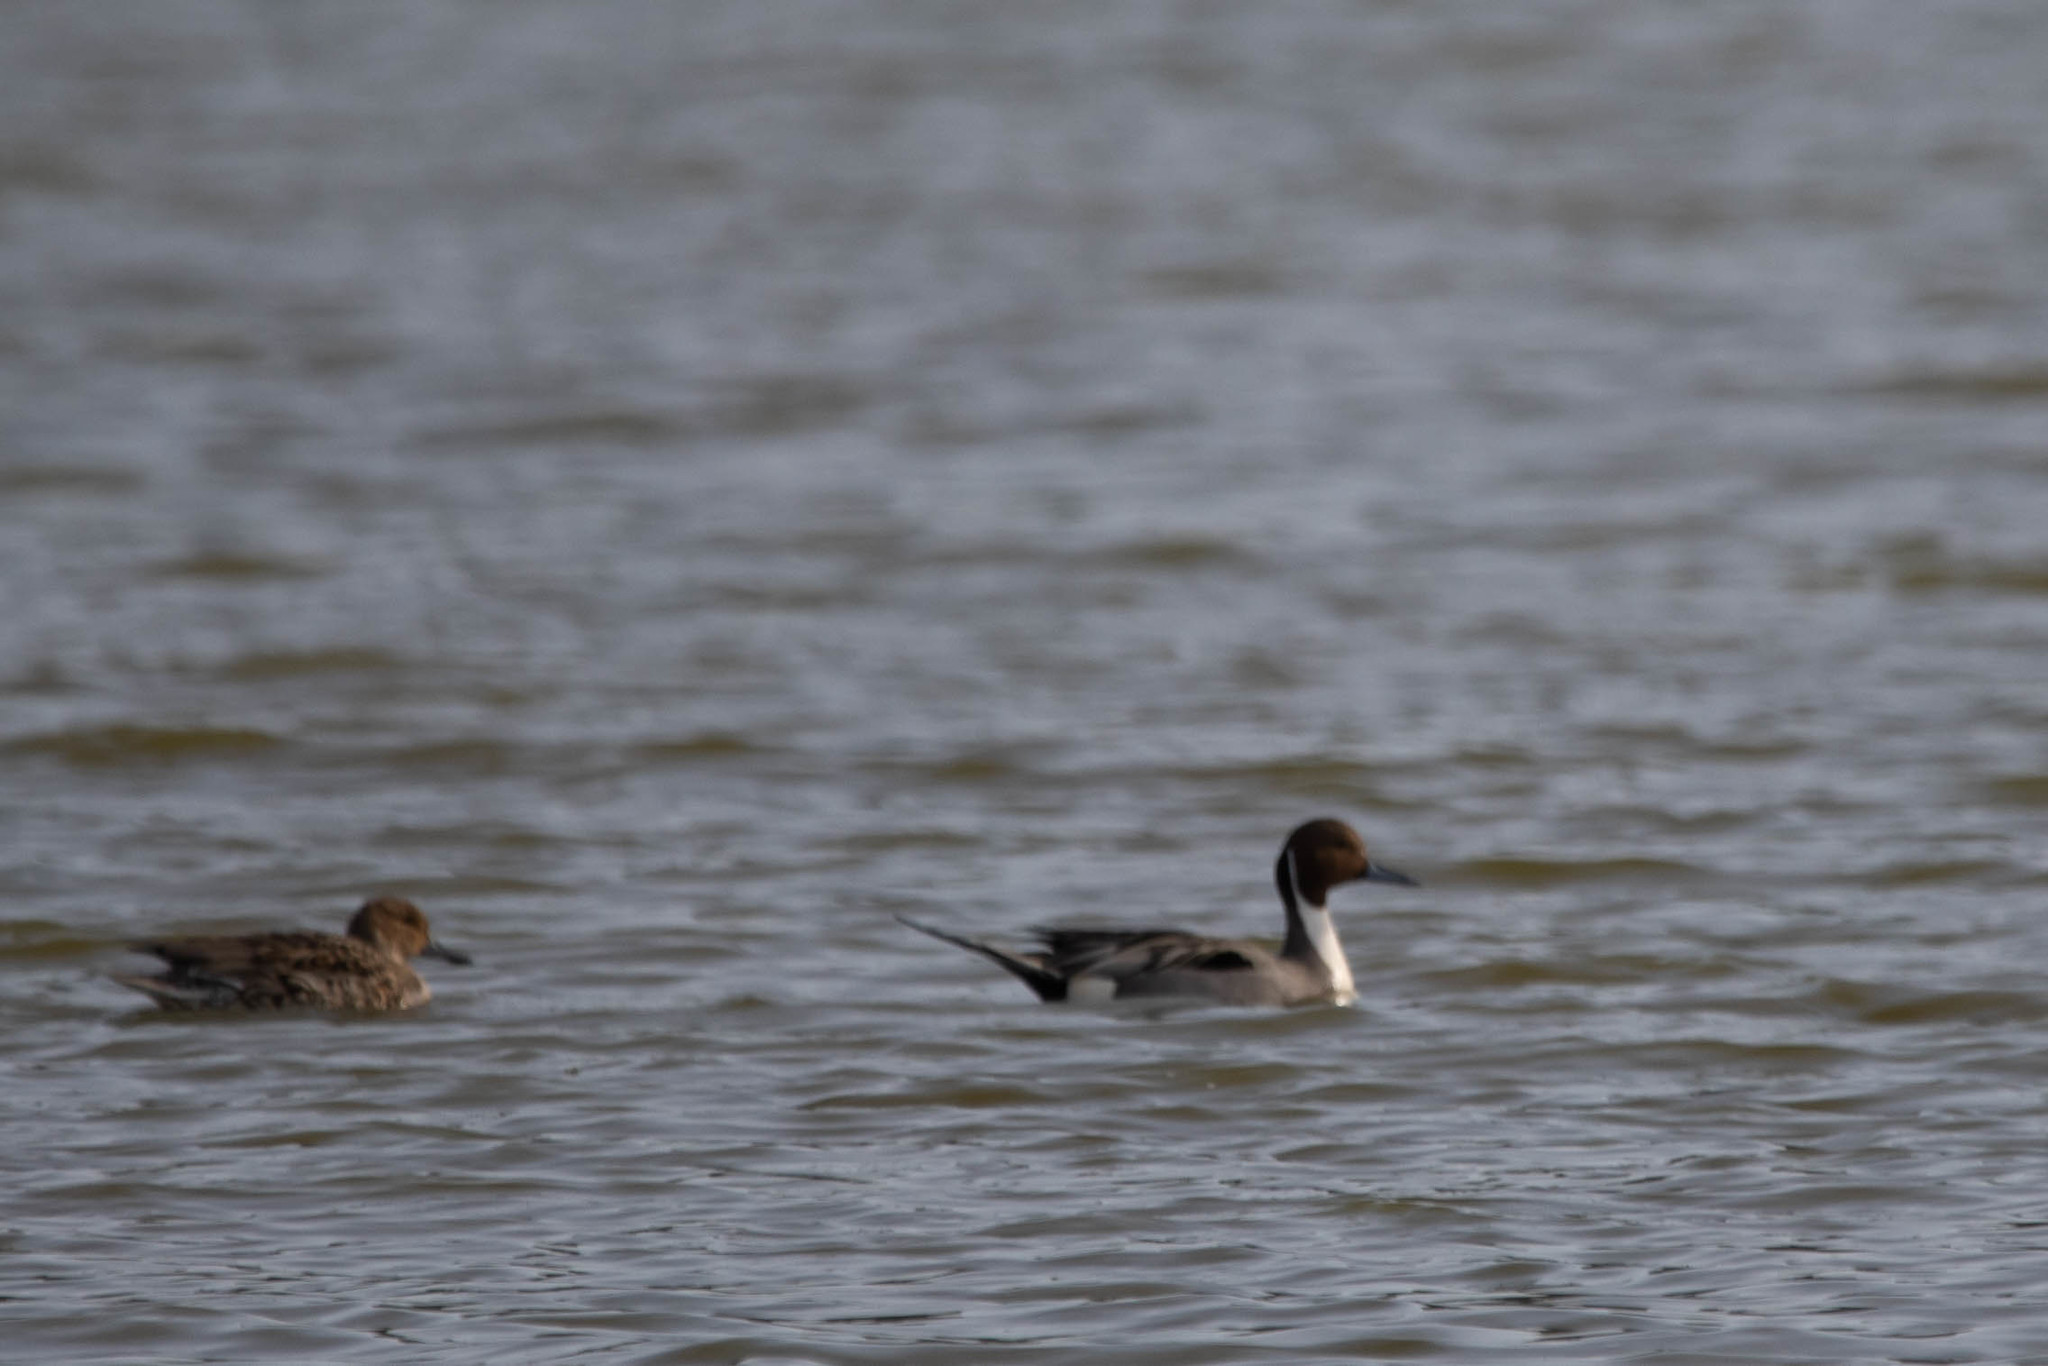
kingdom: Animalia
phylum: Chordata
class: Aves
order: Anseriformes
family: Anatidae
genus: Anas
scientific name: Anas acuta
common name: Northern pintail
